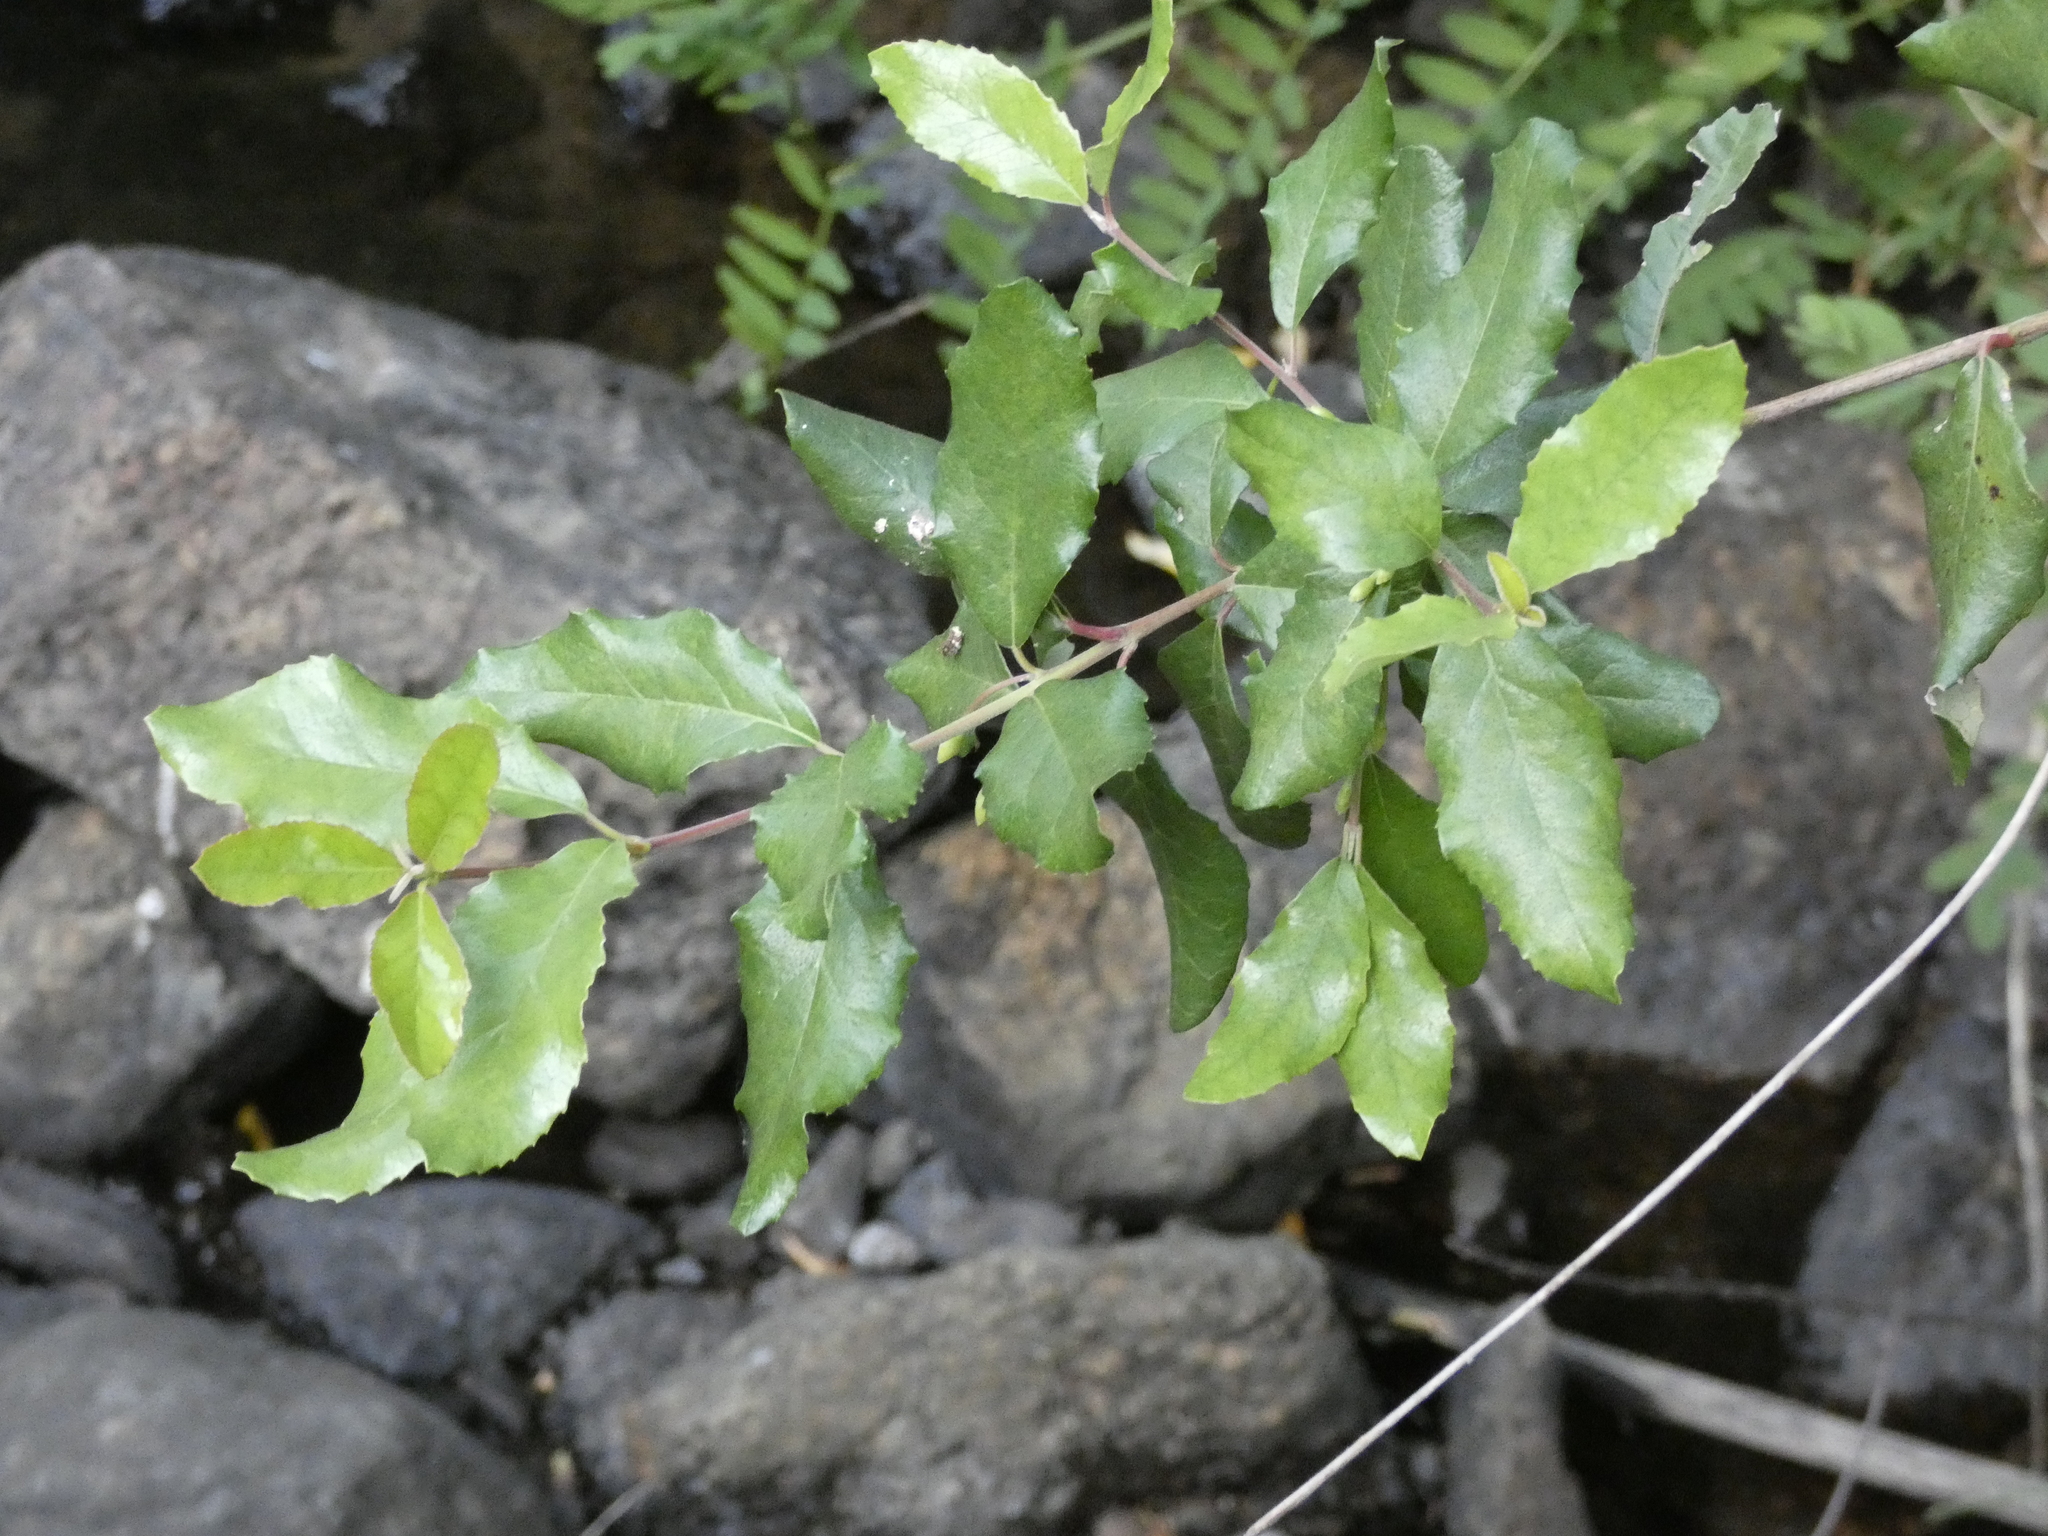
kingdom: Plantae
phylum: Tracheophyta
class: Magnoliopsida
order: Oxalidales
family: Elaeocarpaceae
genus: Crinodendron
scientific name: Crinodendron patagua
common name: Lily-of-the-valley-tree
